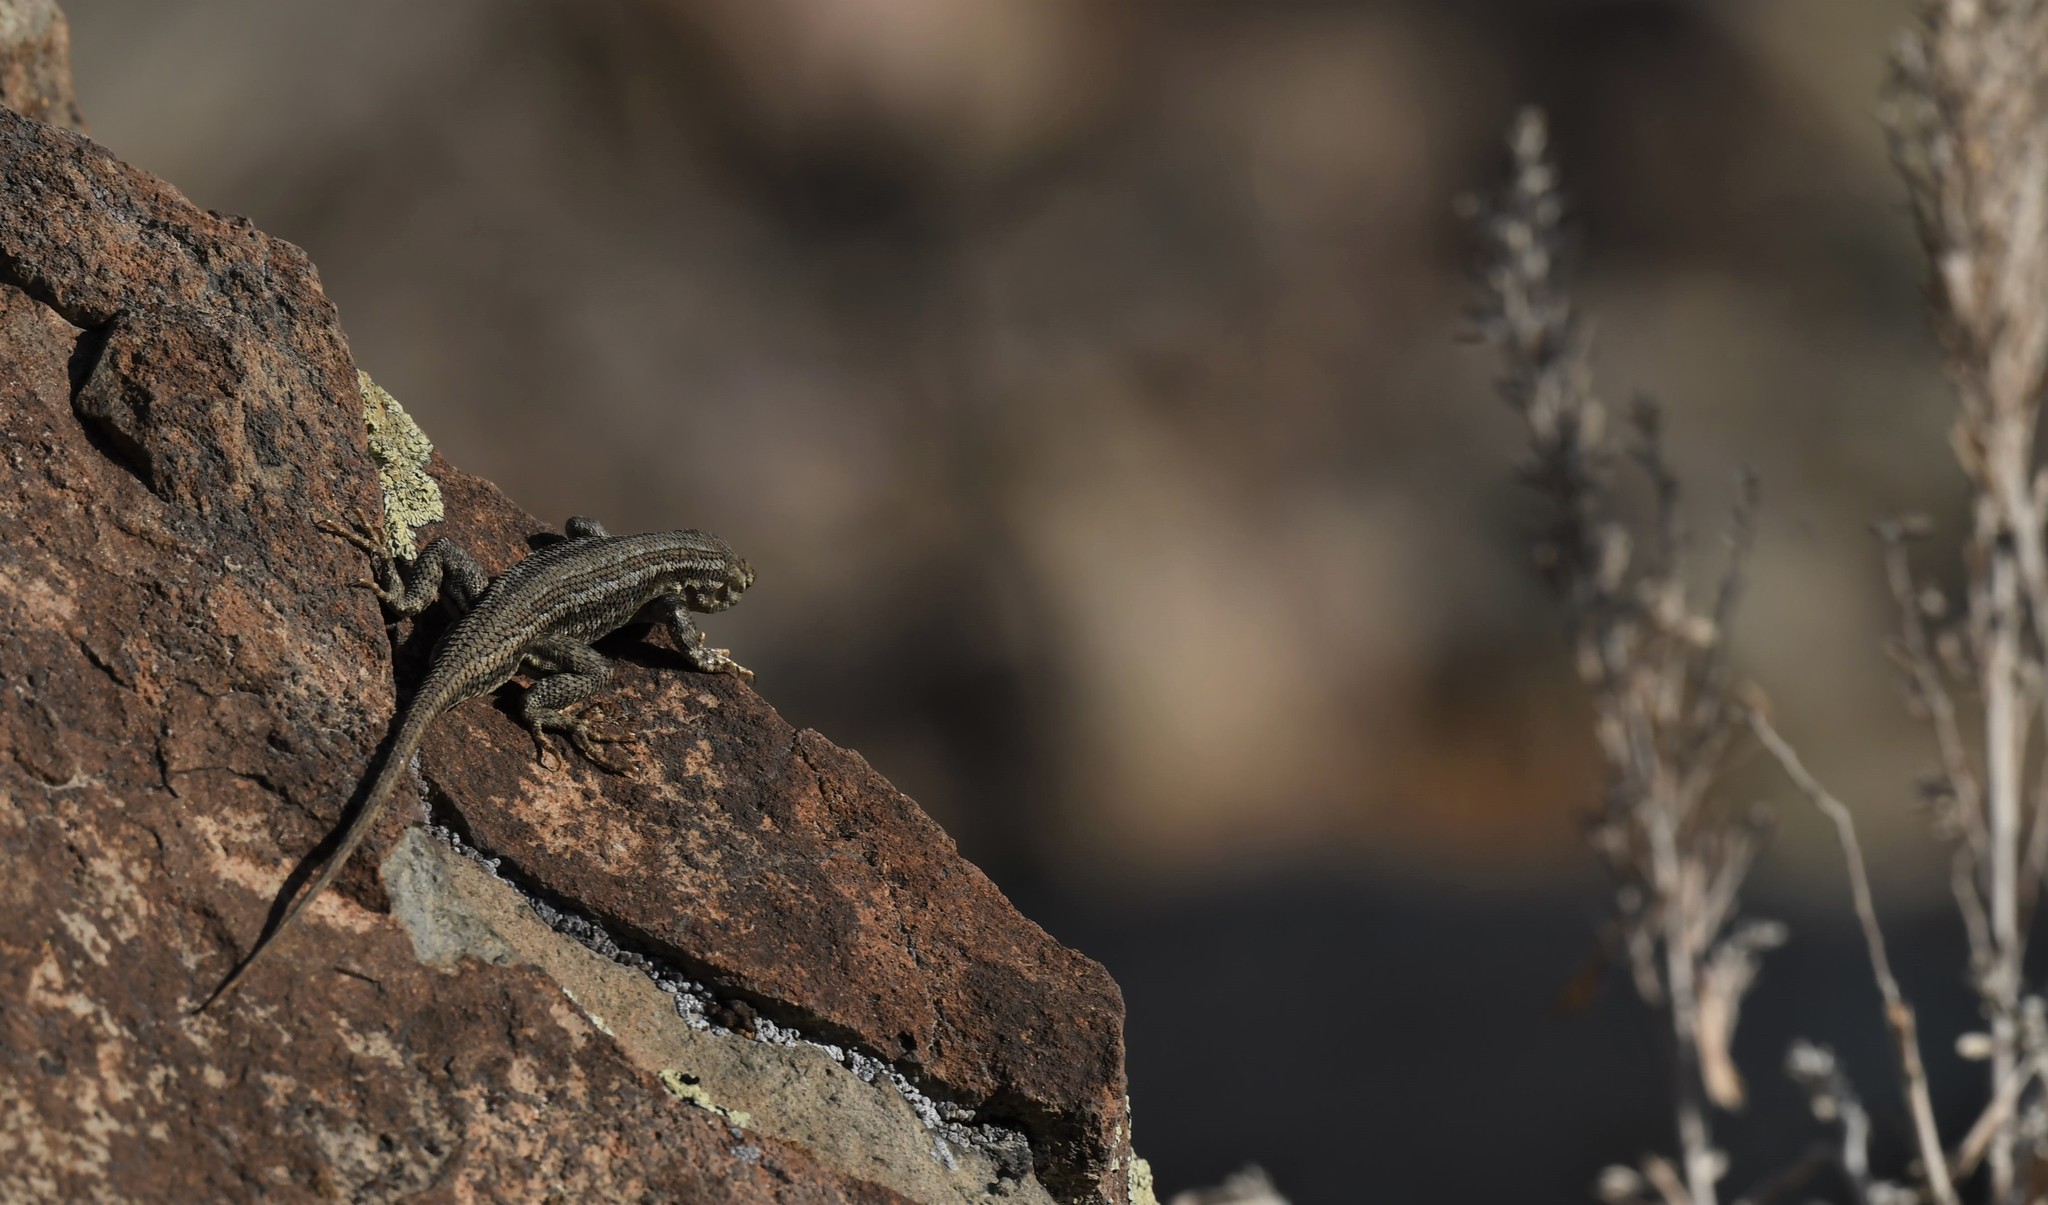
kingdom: Animalia
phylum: Chordata
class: Squamata
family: Phrynosomatidae
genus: Sceloporus
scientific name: Sceloporus graciosus
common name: Sagebrush lizard
